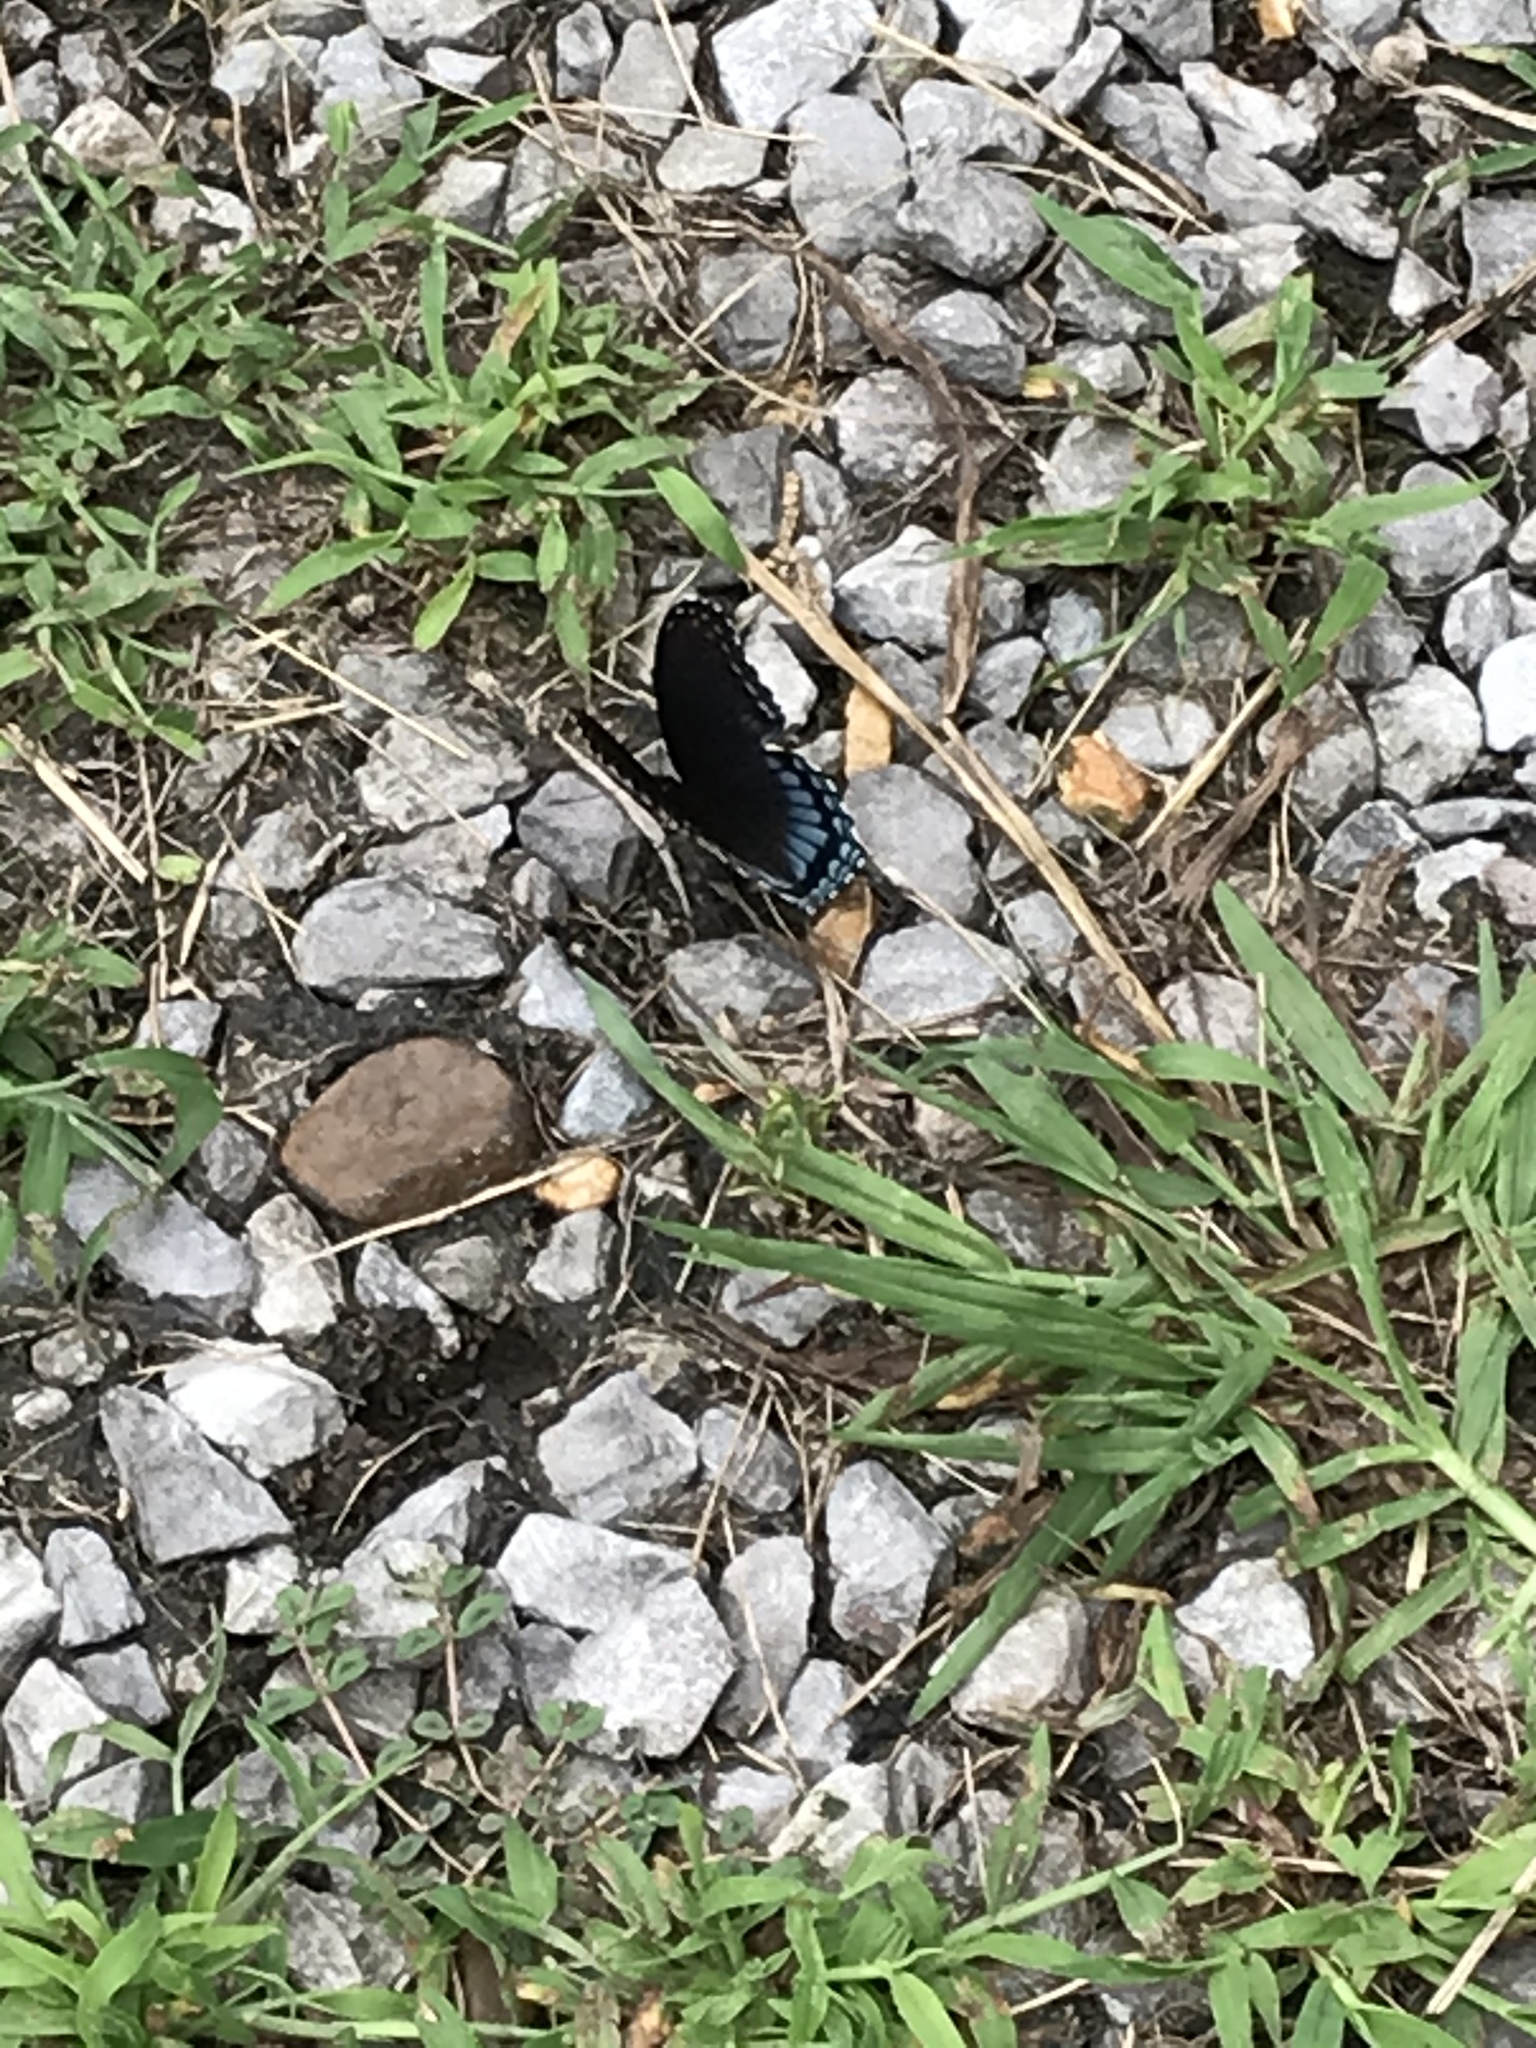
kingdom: Animalia
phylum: Arthropoda
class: Insecta
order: Lepidoptera
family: Nymphalidae
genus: Limenitis
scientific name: Limenitis astyanax
